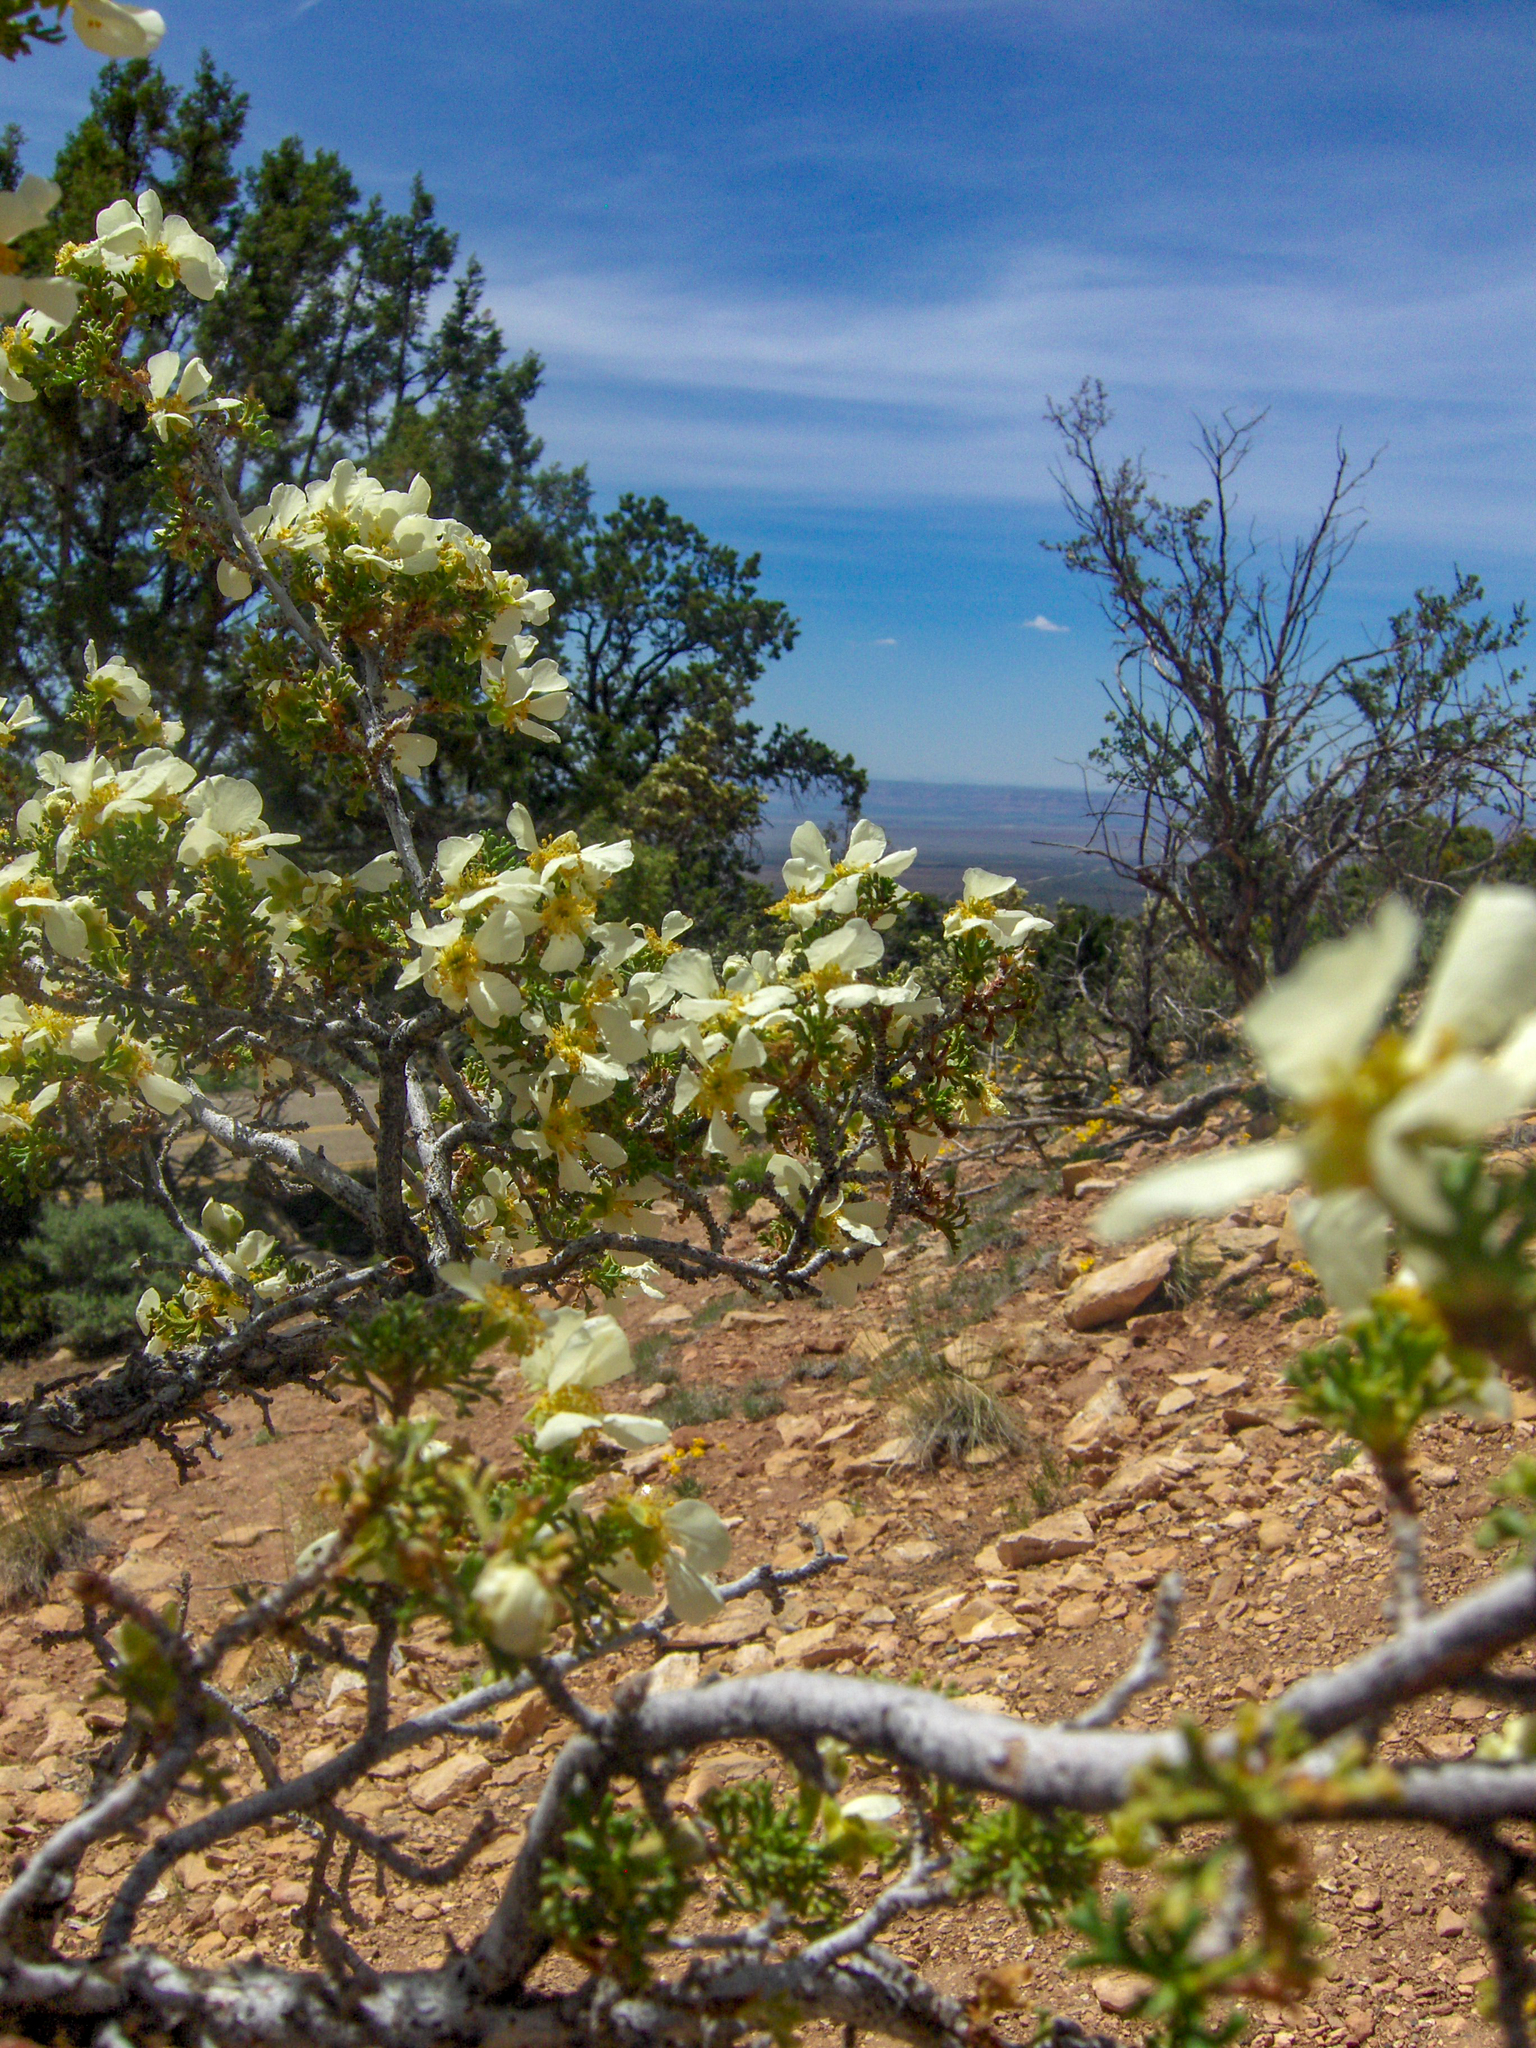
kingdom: Plantae
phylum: Tracheophyta
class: Magnoliopsida
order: Rosales
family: Rosaceae
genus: Purshia
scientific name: Purshia stansburiana
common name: Stansbury's cliffrose
